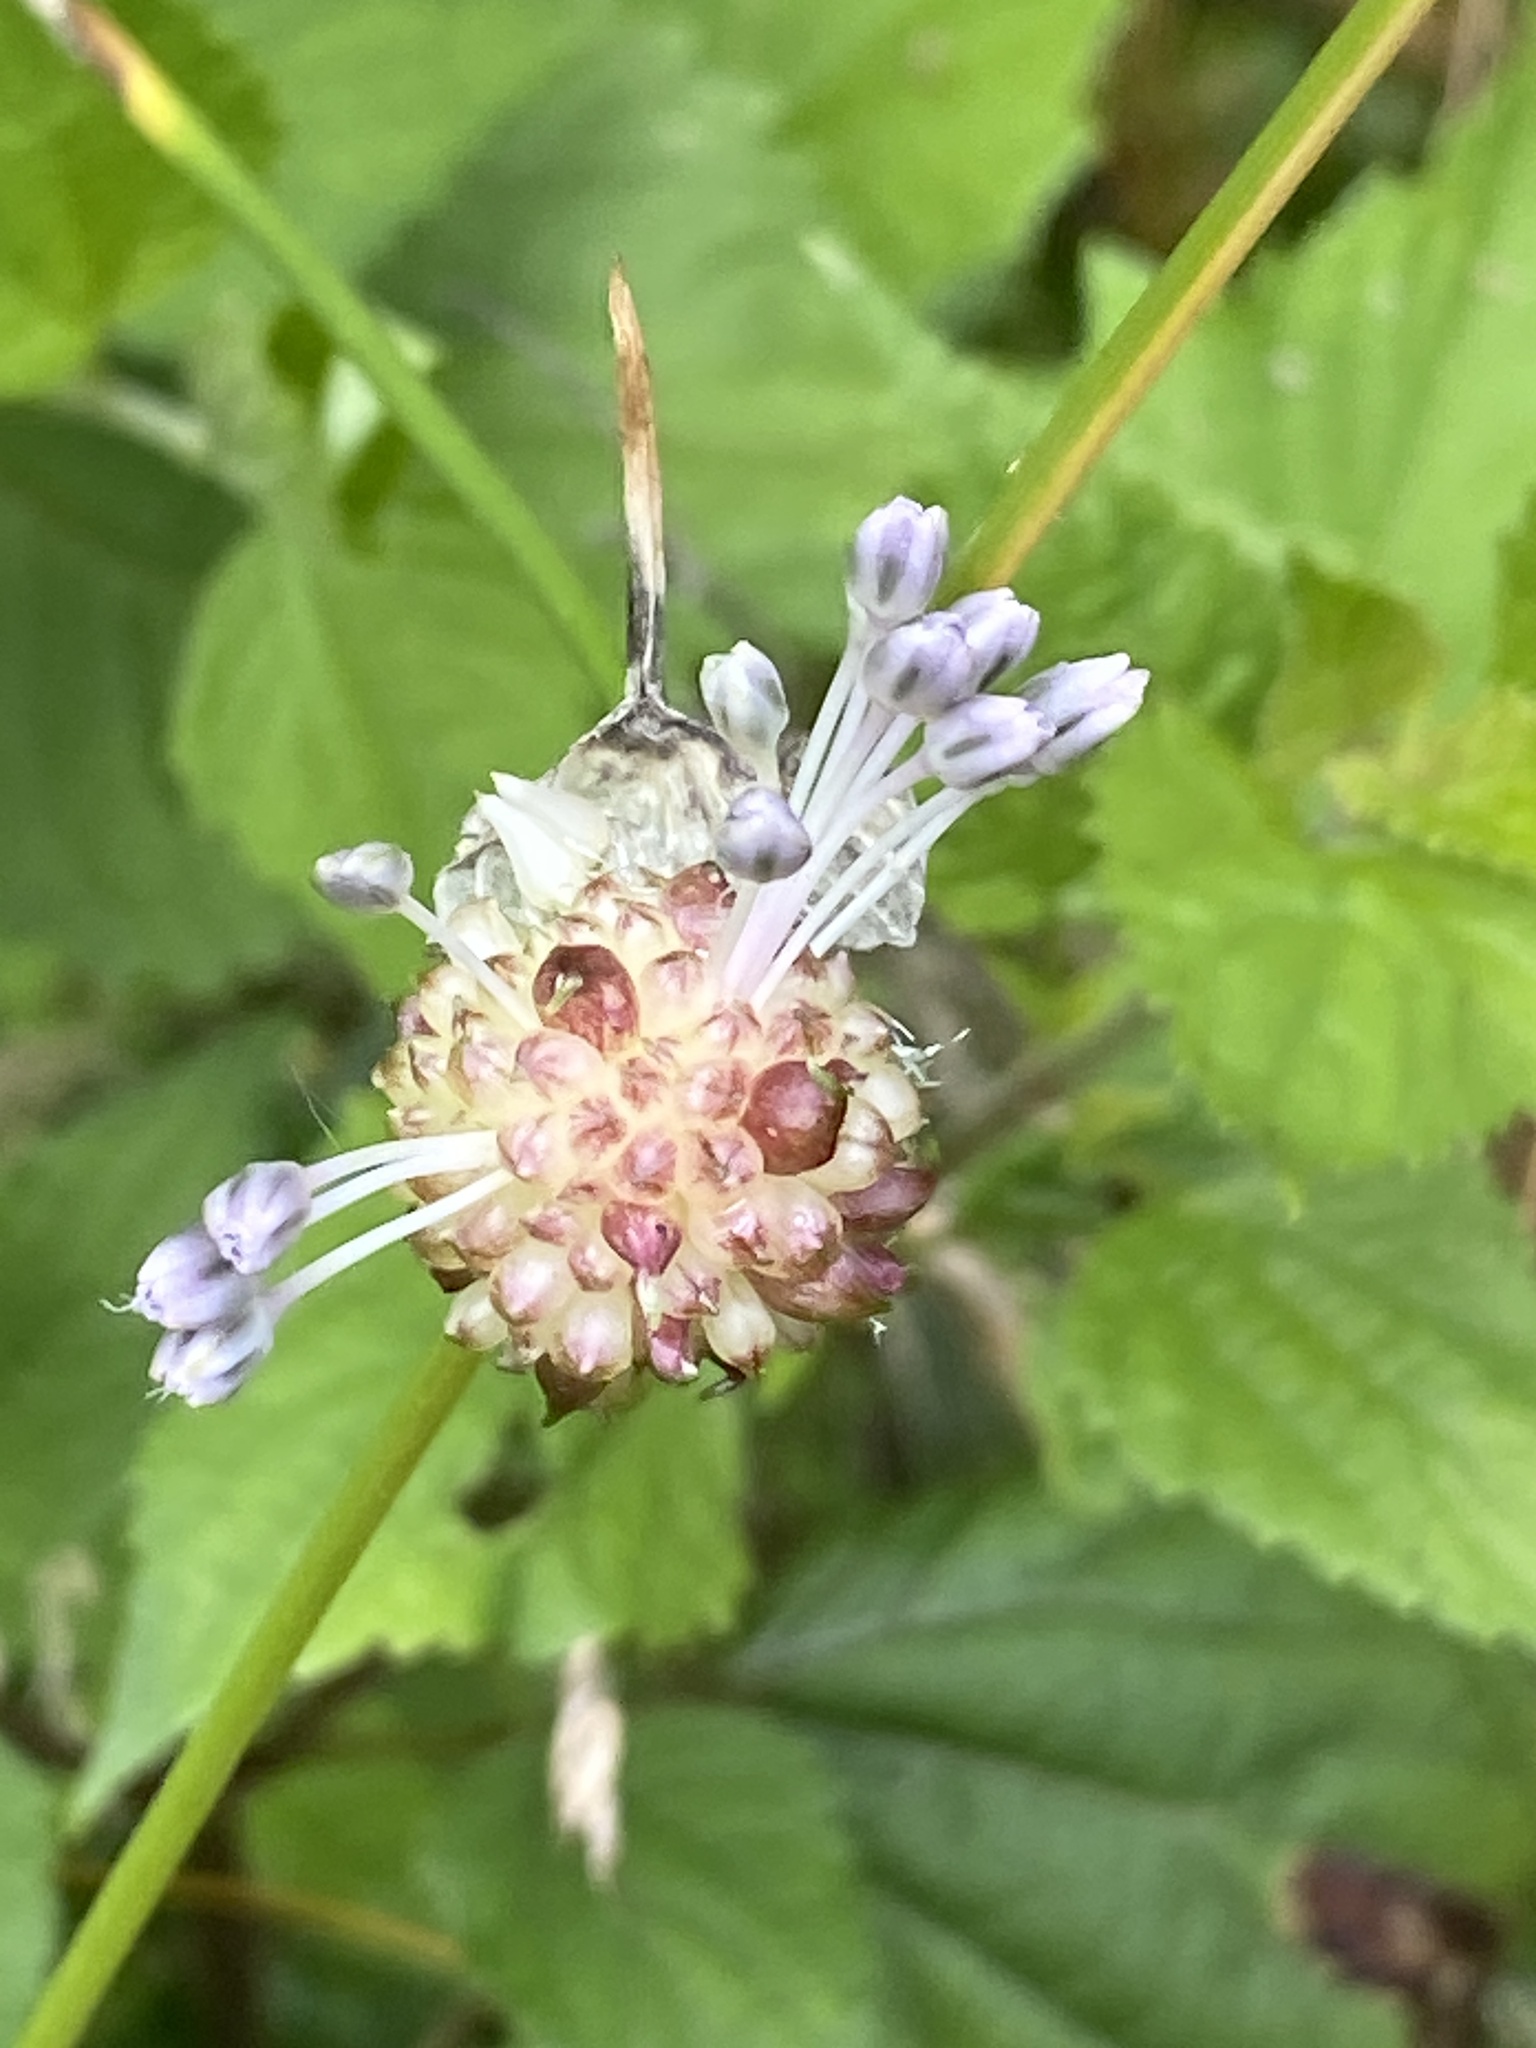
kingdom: Plantae
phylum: Tracheophyta
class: Liliopsida
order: Asparagales
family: Amaryllidaceae
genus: Allium
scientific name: Allium vineale
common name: Crow garlic
